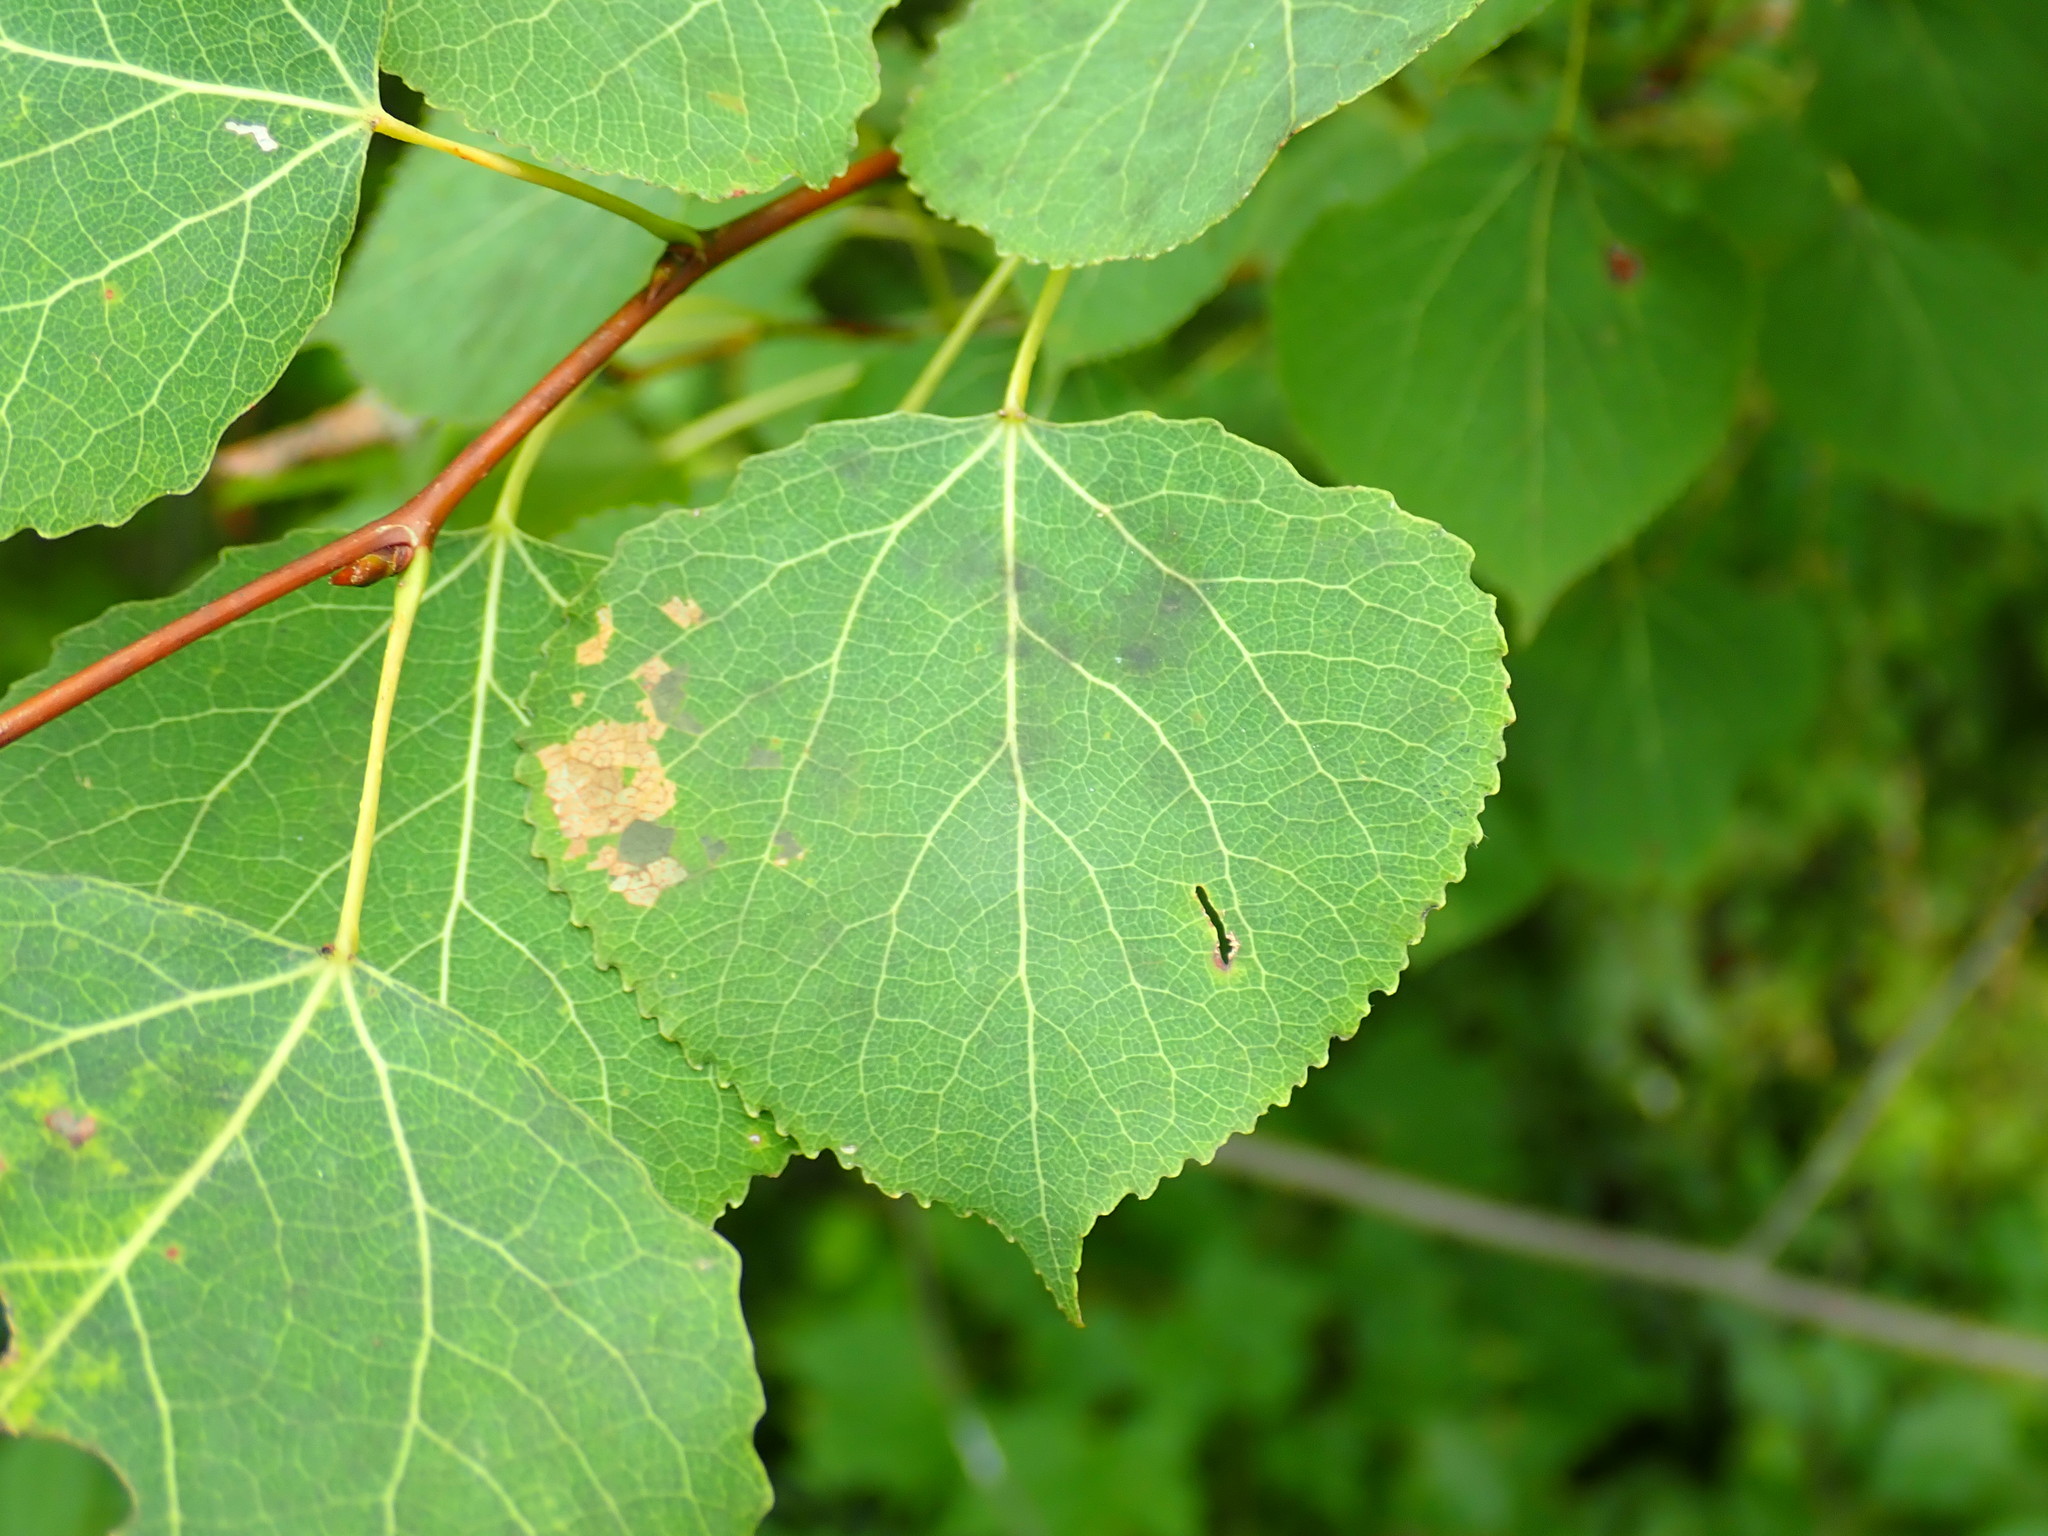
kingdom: Plantae
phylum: Tracheophyta
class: Magnoliopsida
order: Malpighiales
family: Salicaceae
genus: Populus
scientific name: Populus tremuloides
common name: Quaking aspen
